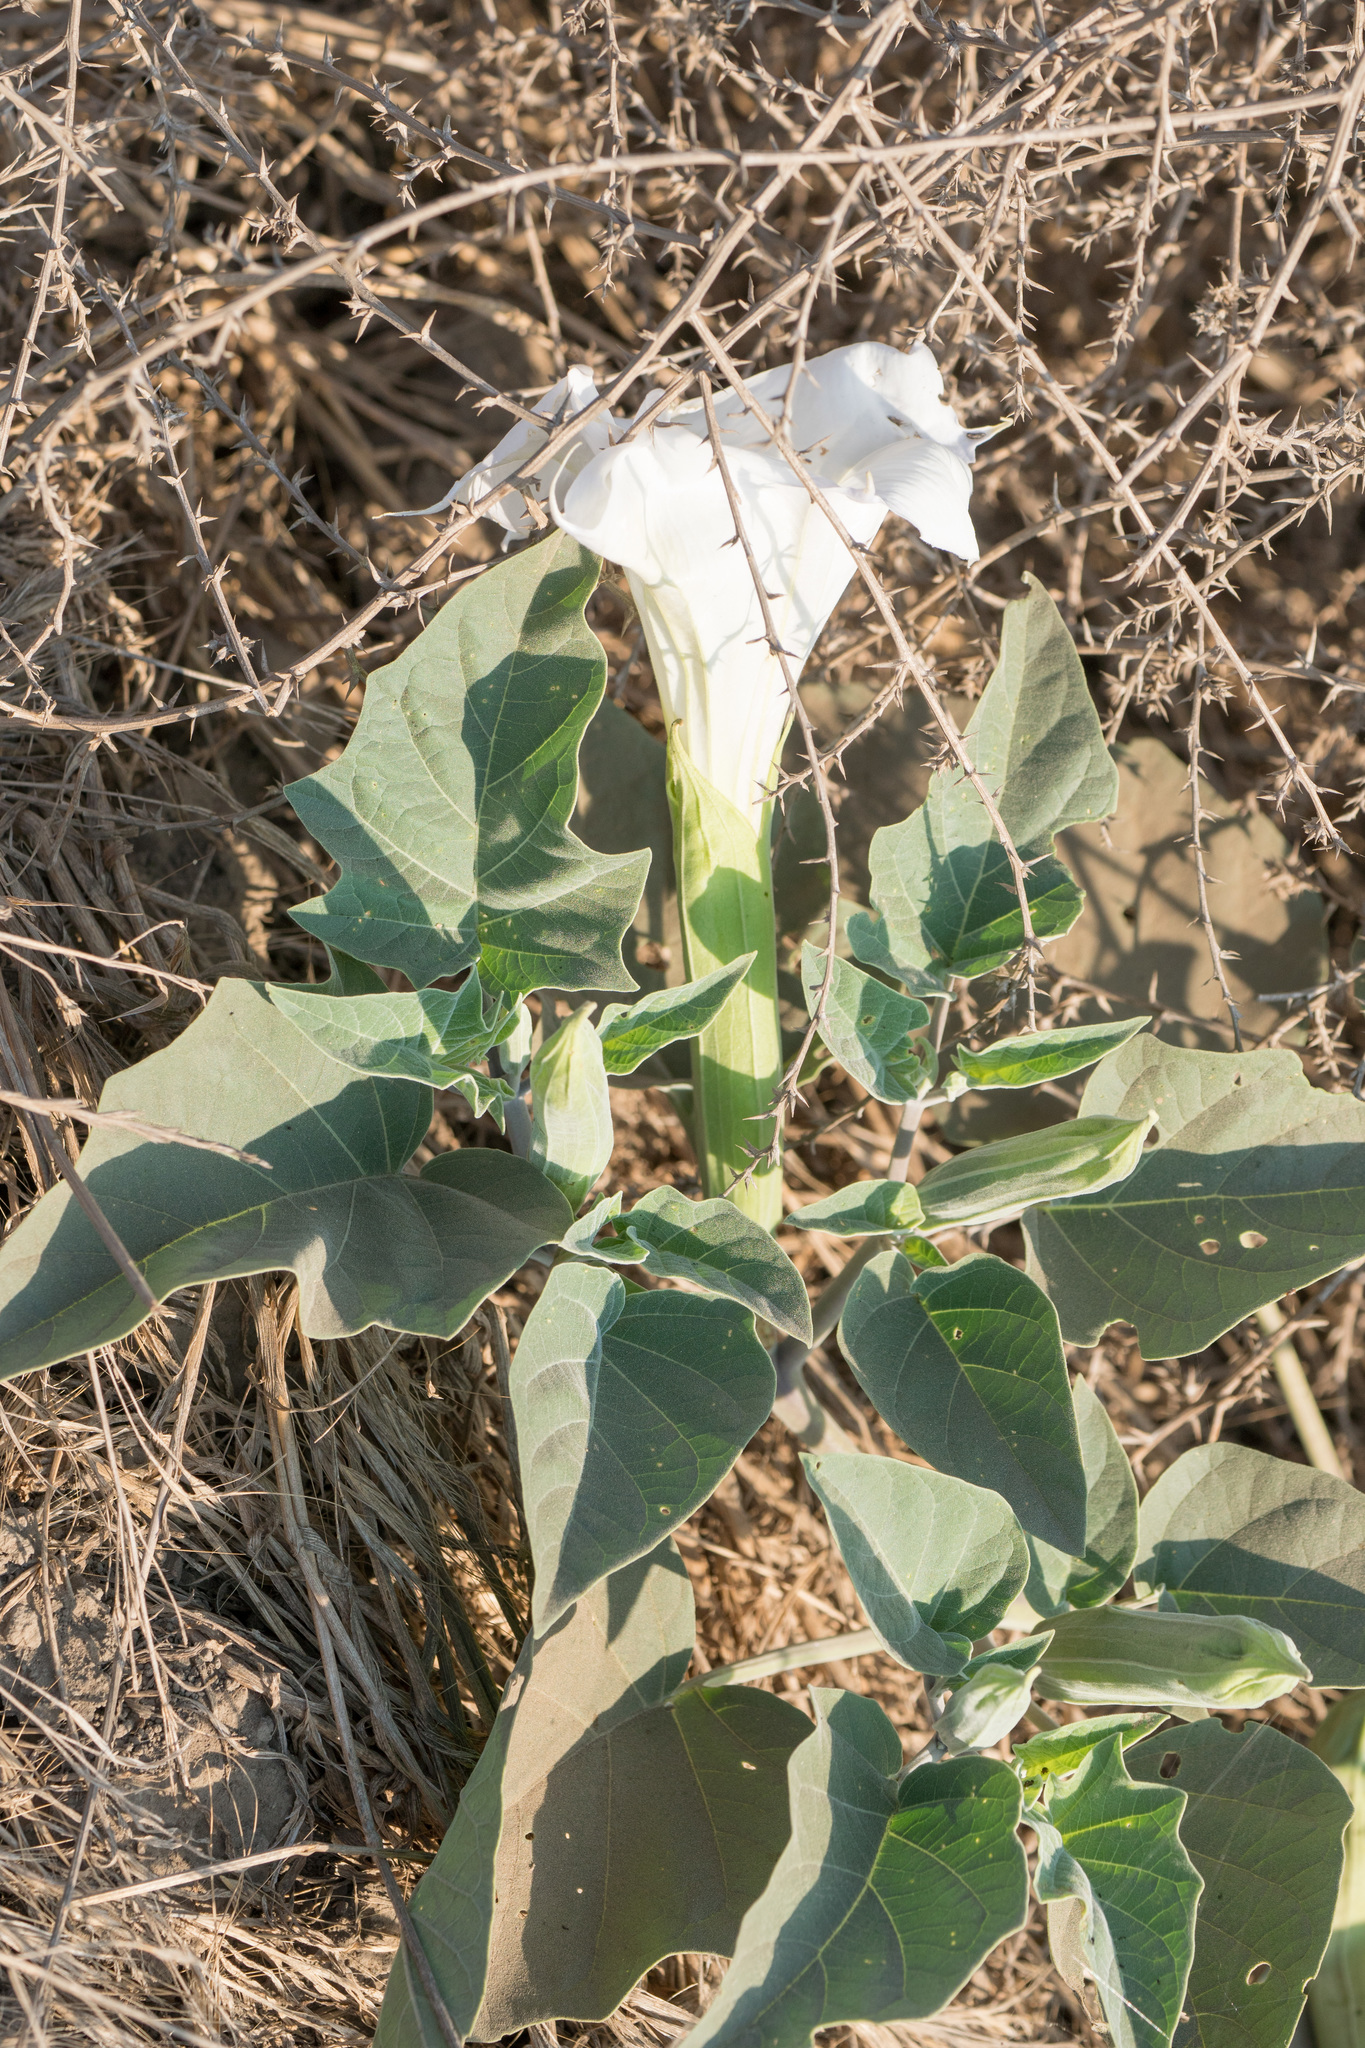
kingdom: Plantae
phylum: Tracheophyta
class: Magnoliopsida
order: Solanales
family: Solanaceae
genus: Datura
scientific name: Datura wrightii
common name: Sacred thorn-apple
